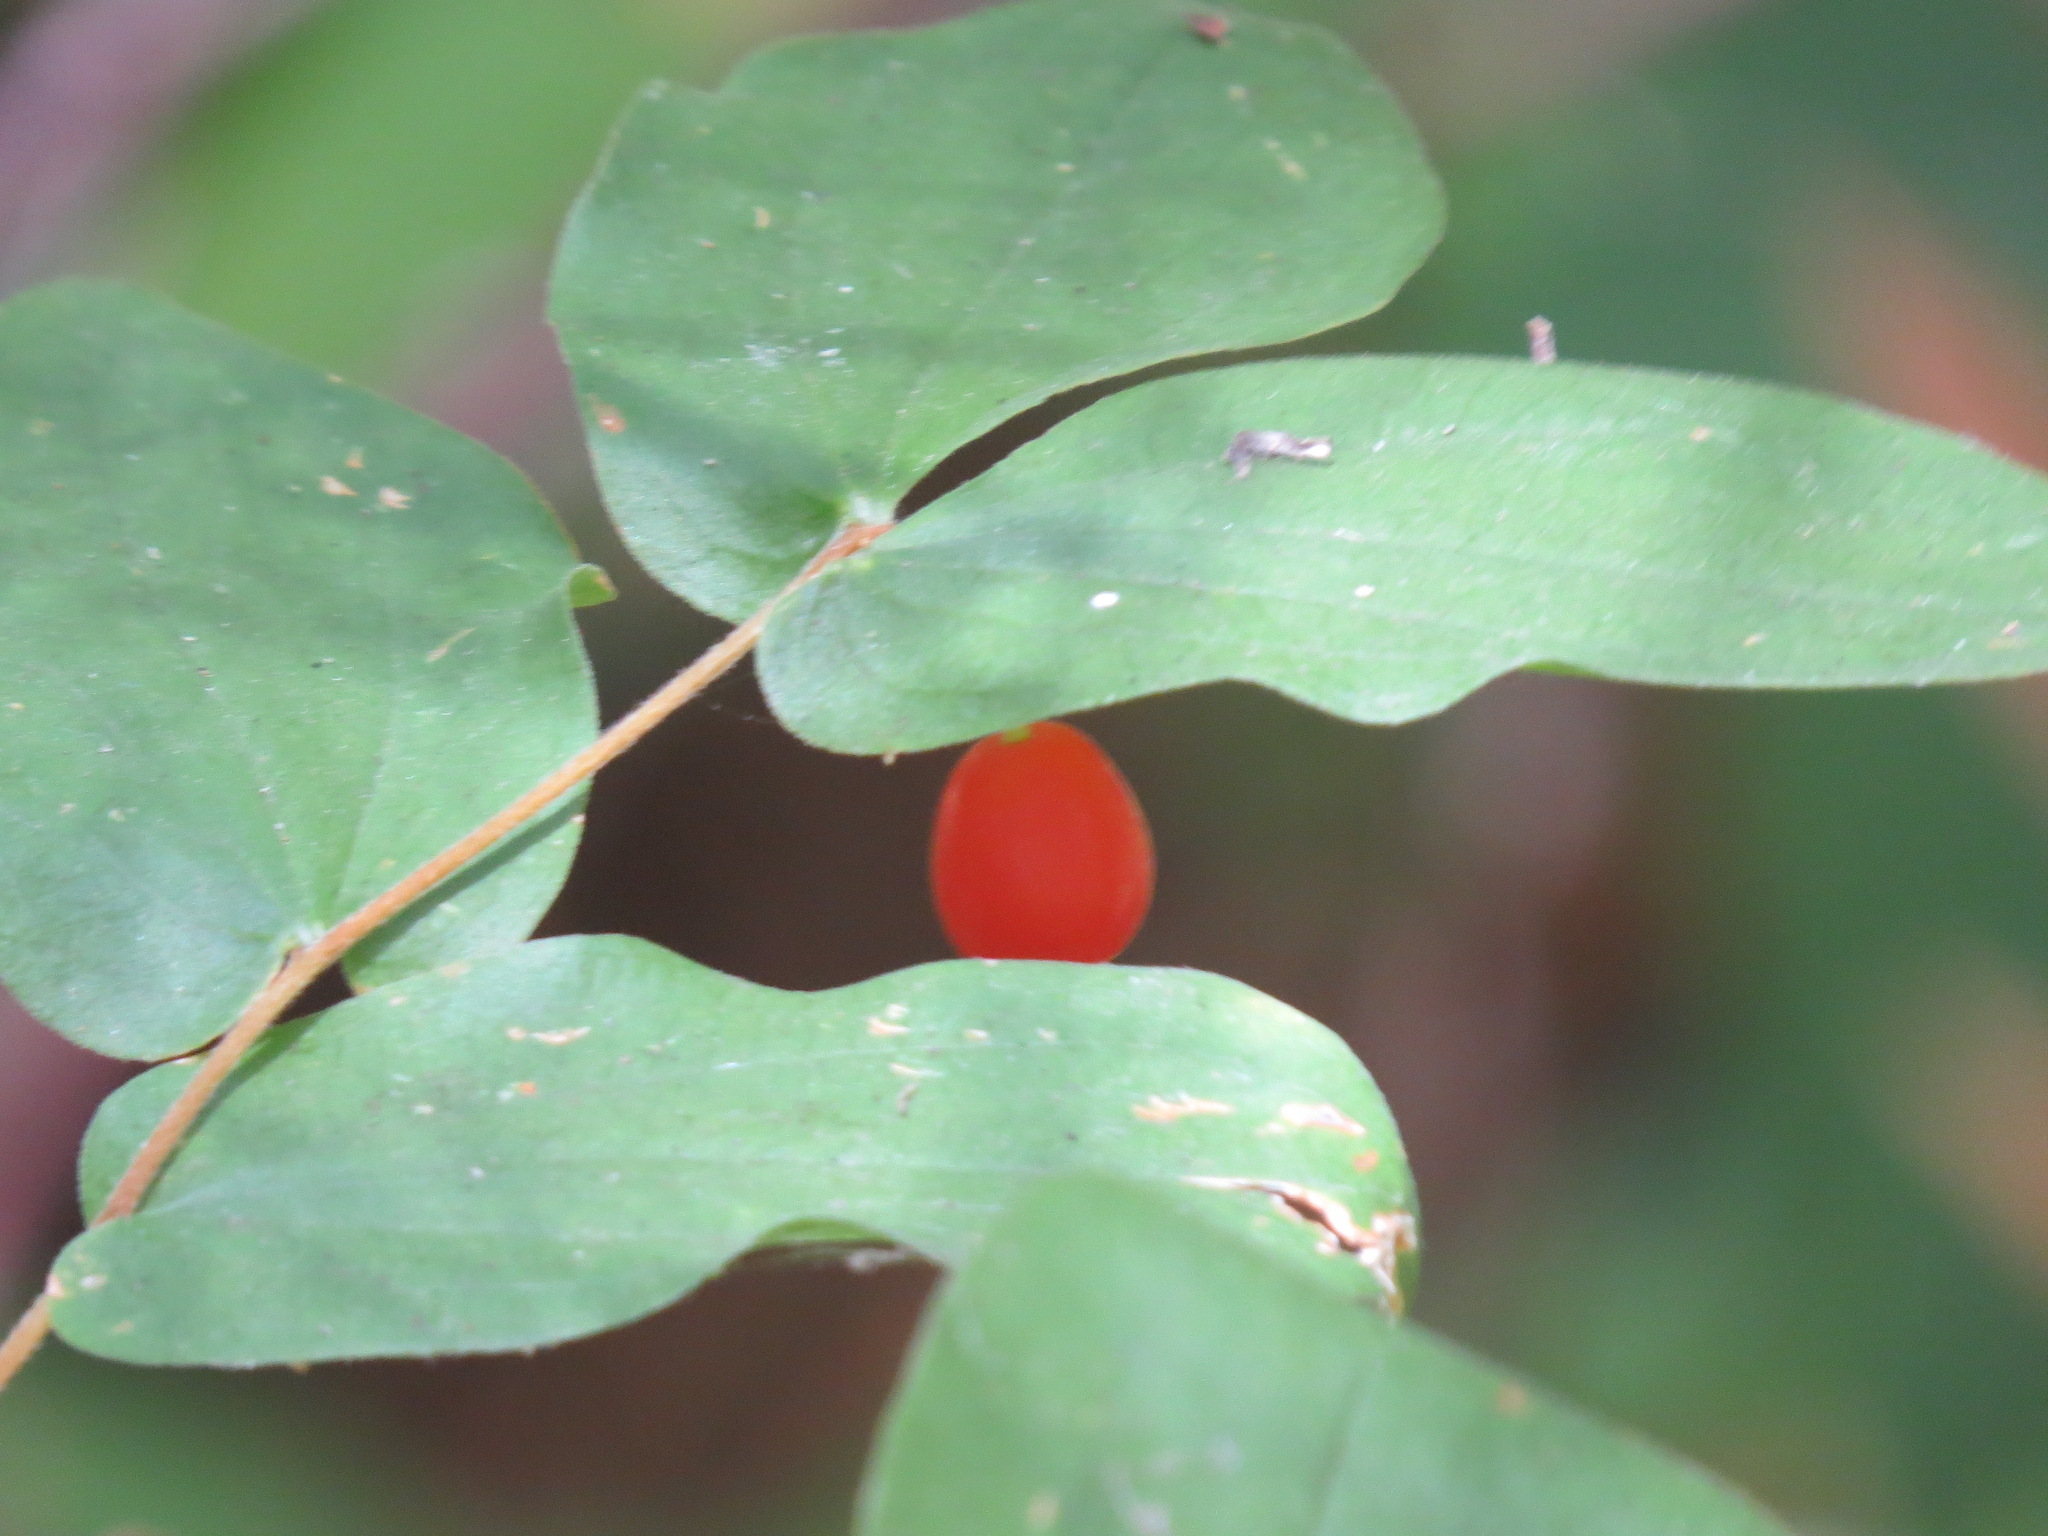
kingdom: Plantae
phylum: Tracheophyta
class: Liliopsida
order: Liliales
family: Liliaceae
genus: Prosartes
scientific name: Prosartes hookeri
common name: Fairy-bells
